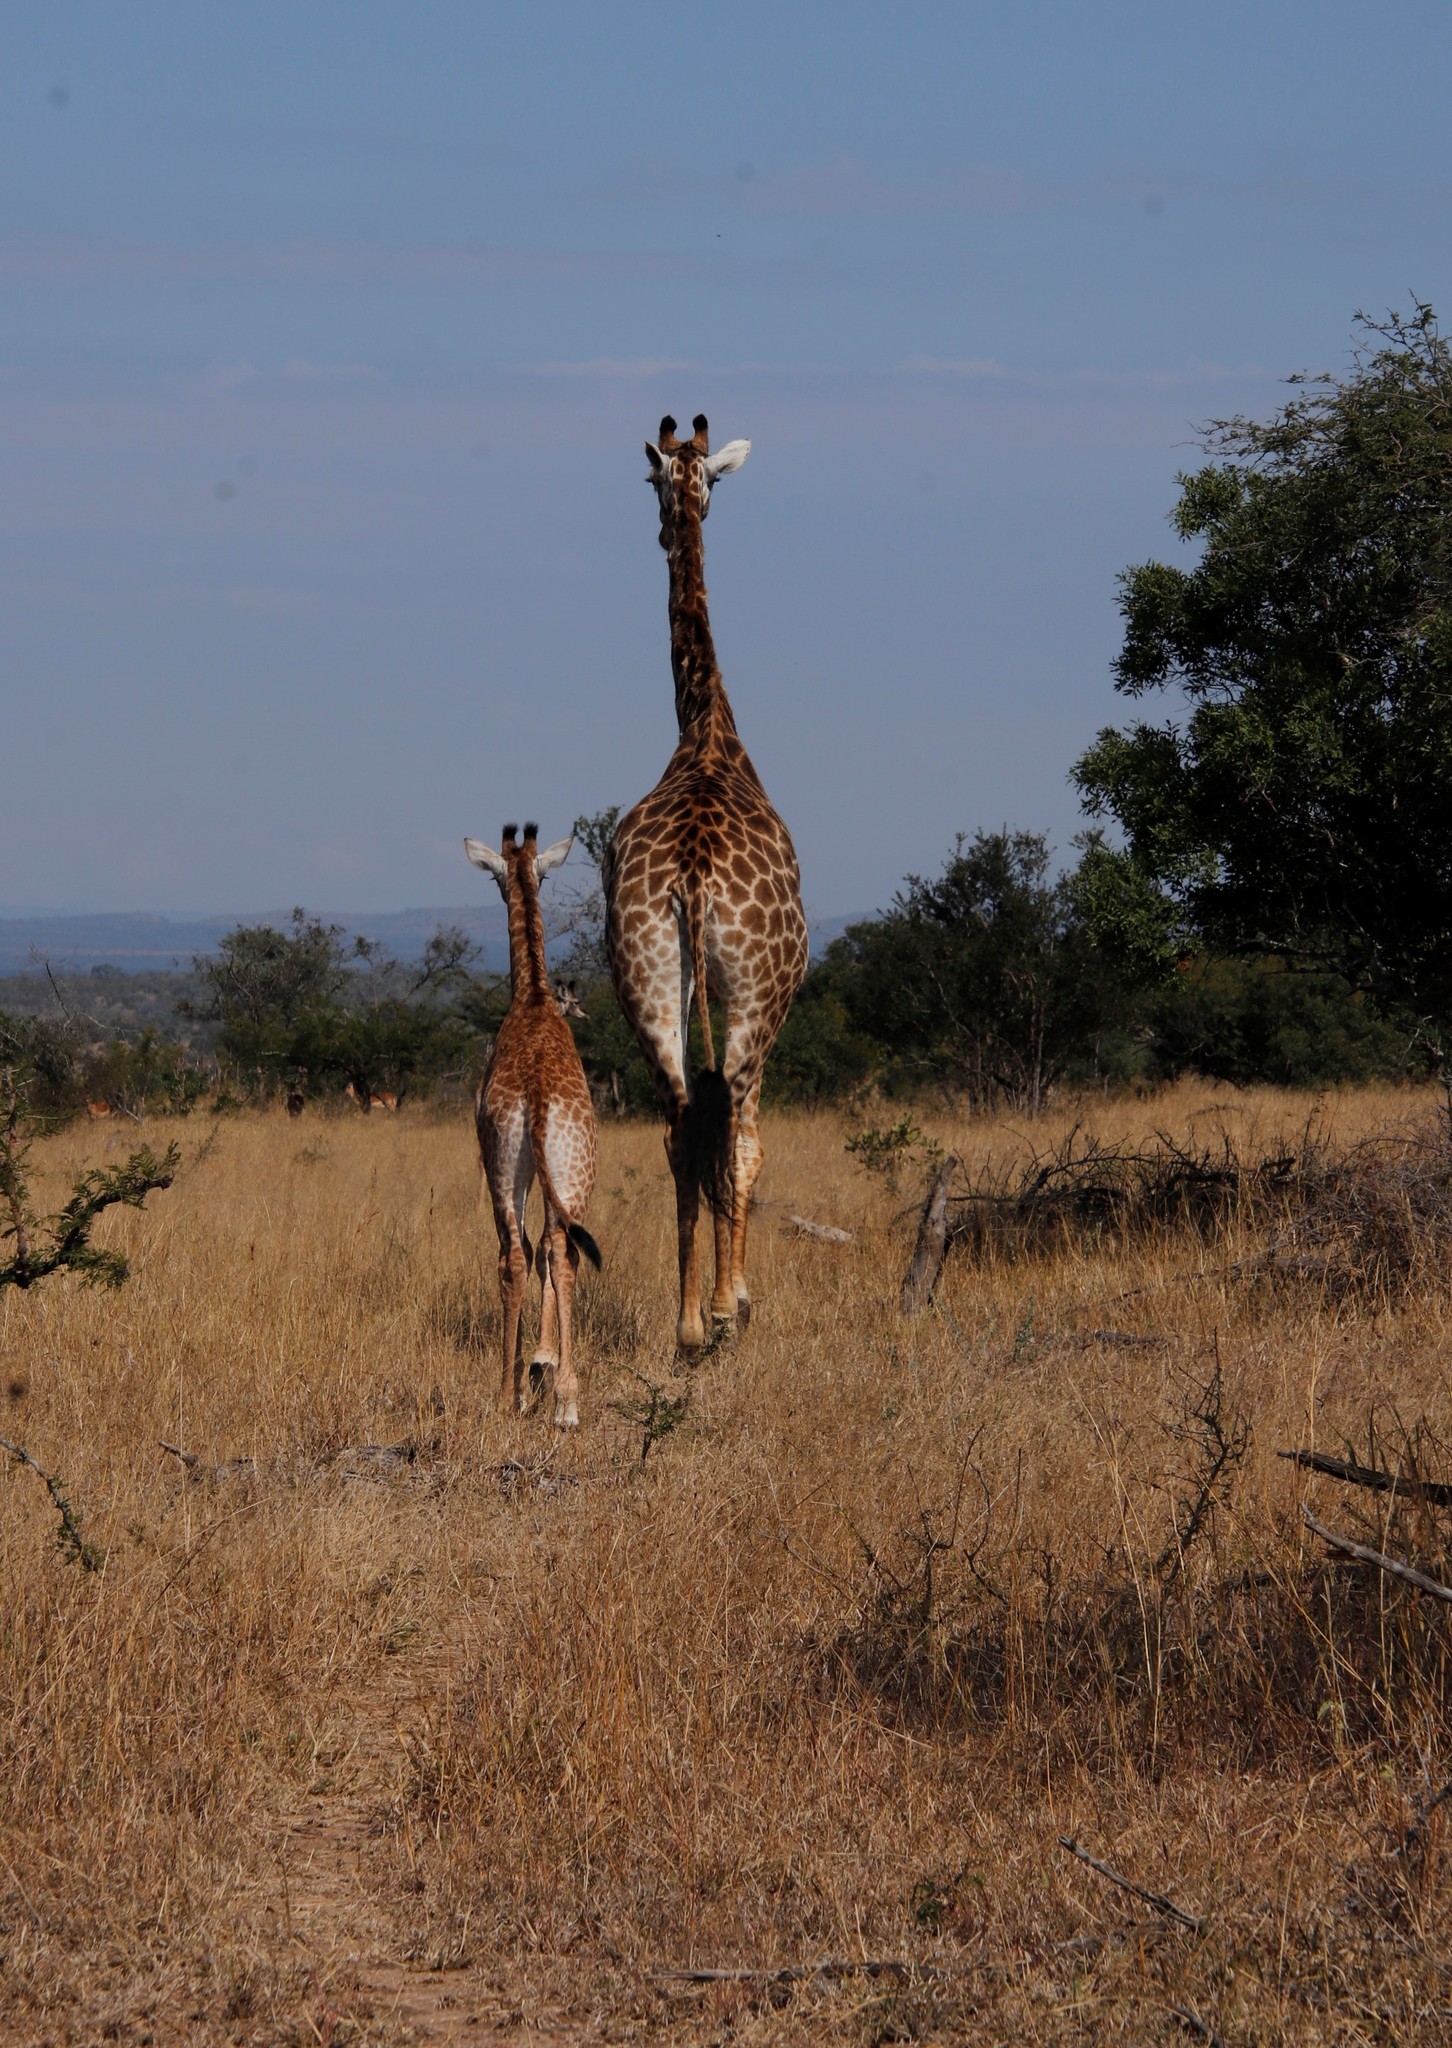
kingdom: Animalia
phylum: Chordata
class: Mammalia
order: Artiodactyla
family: Giraffidae
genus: Giraffa
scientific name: Giraffa giraffa
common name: Southern giraffe
